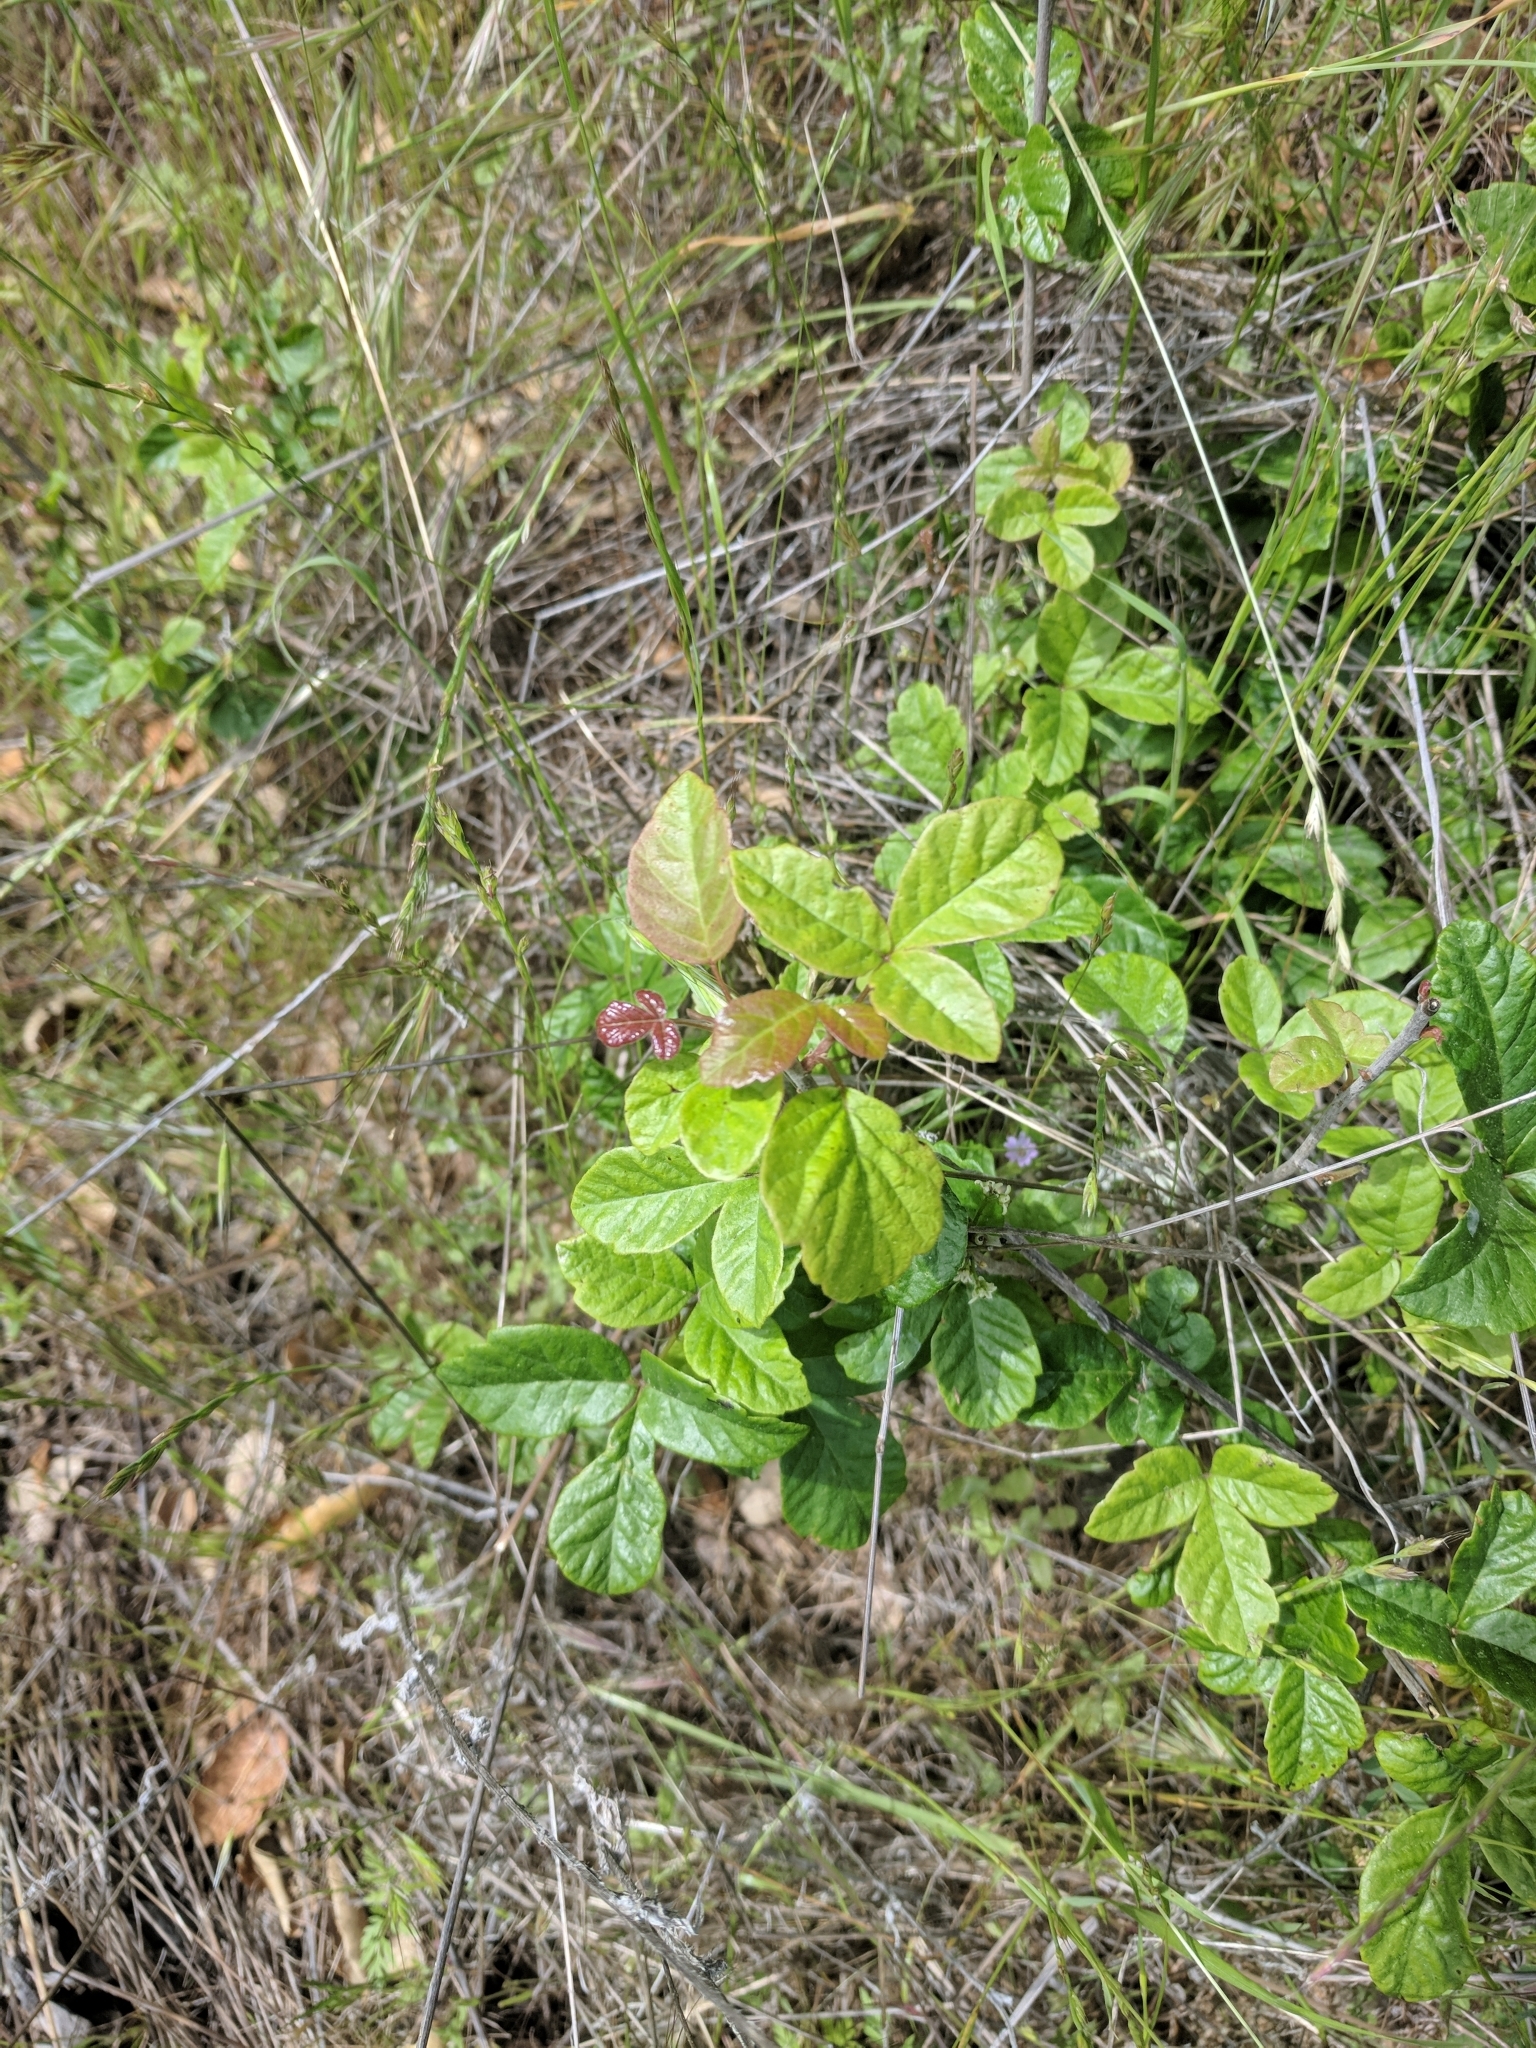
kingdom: Plantae
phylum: Tracheophyta
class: Magnoliopsida
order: Sapindales
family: Anacardiaceae
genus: Toxicodendron
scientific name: Toxicodendron diversilobum
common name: Pacific poison-oak
